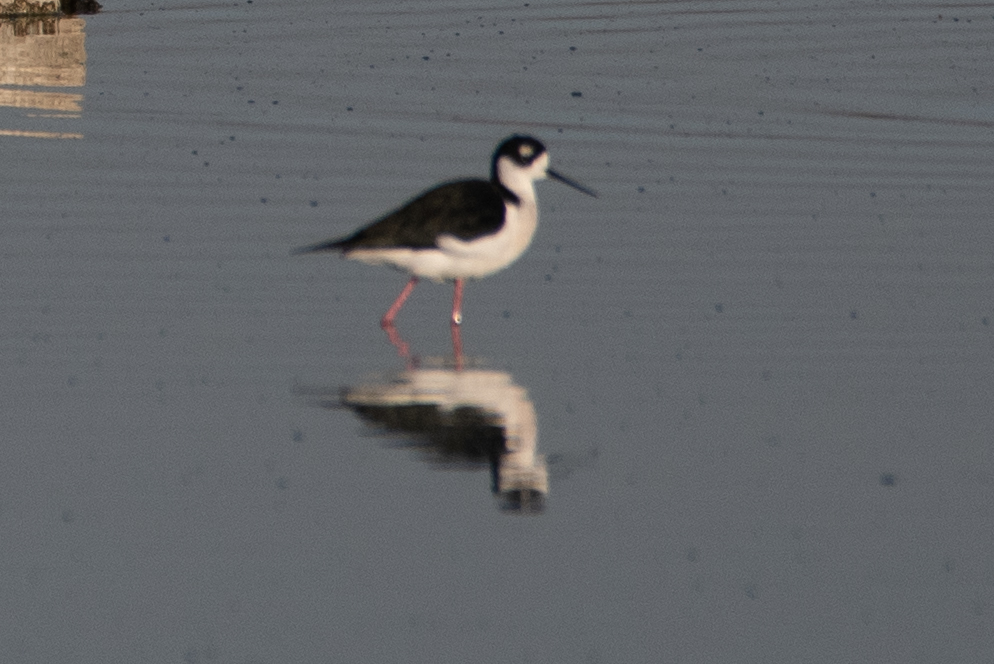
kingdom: Animalia
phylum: Chordata
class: Aves
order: Charadriiformes
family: Recurvirostridae
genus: Himantopus
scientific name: Himantopus mexicanus
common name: Black-necked stilt
